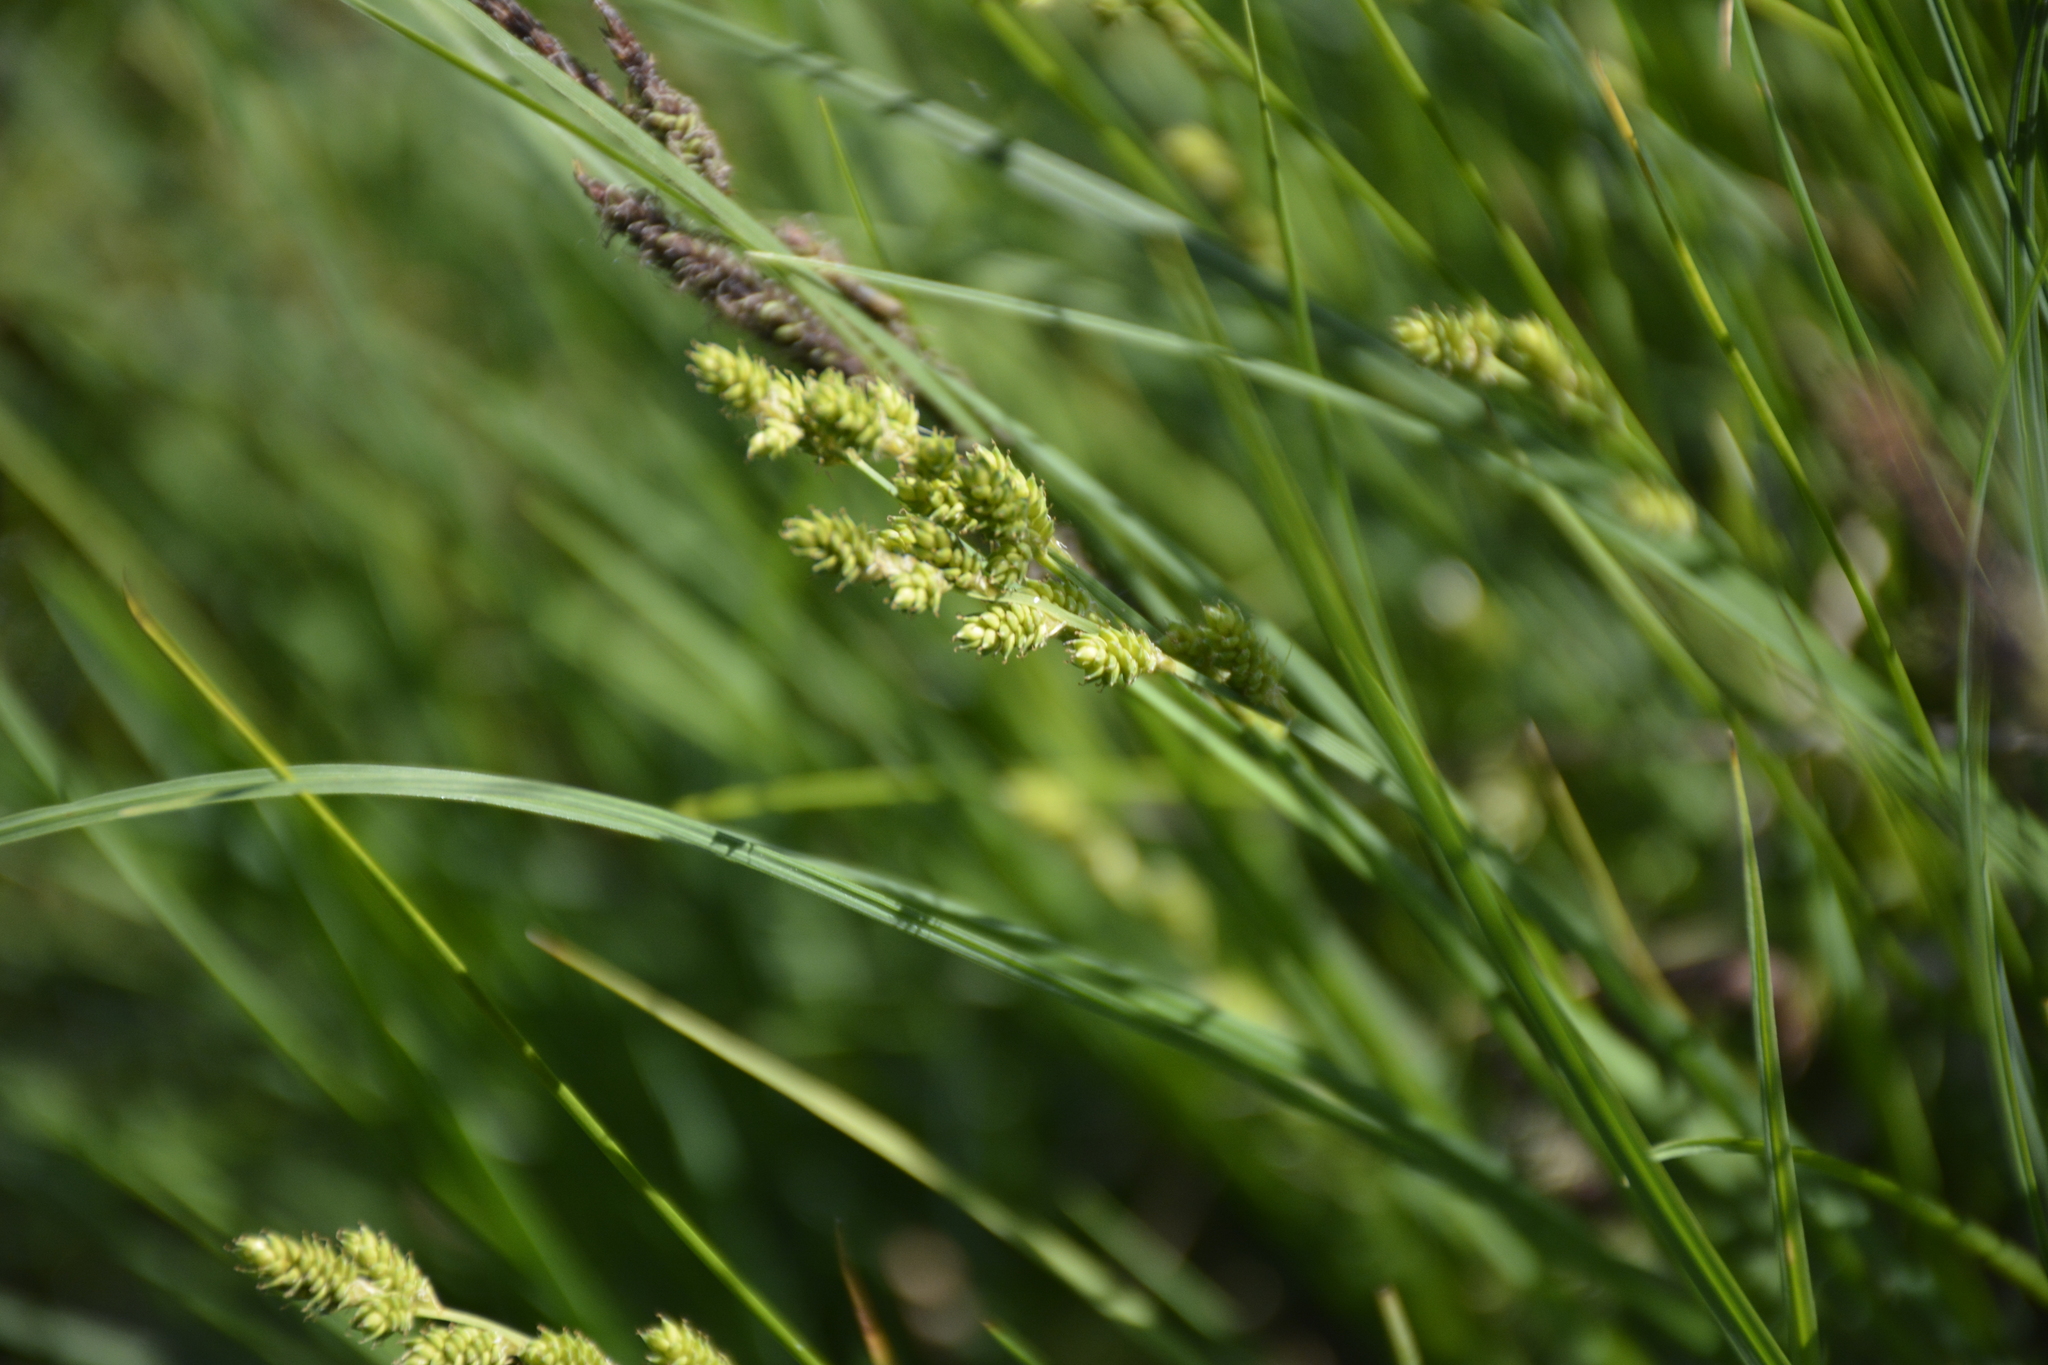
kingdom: Plantae
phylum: Tracheophyta
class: Liliopsida
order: Poales
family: Cyperaceae
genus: Carex
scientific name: Carex canescens
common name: White sedge
